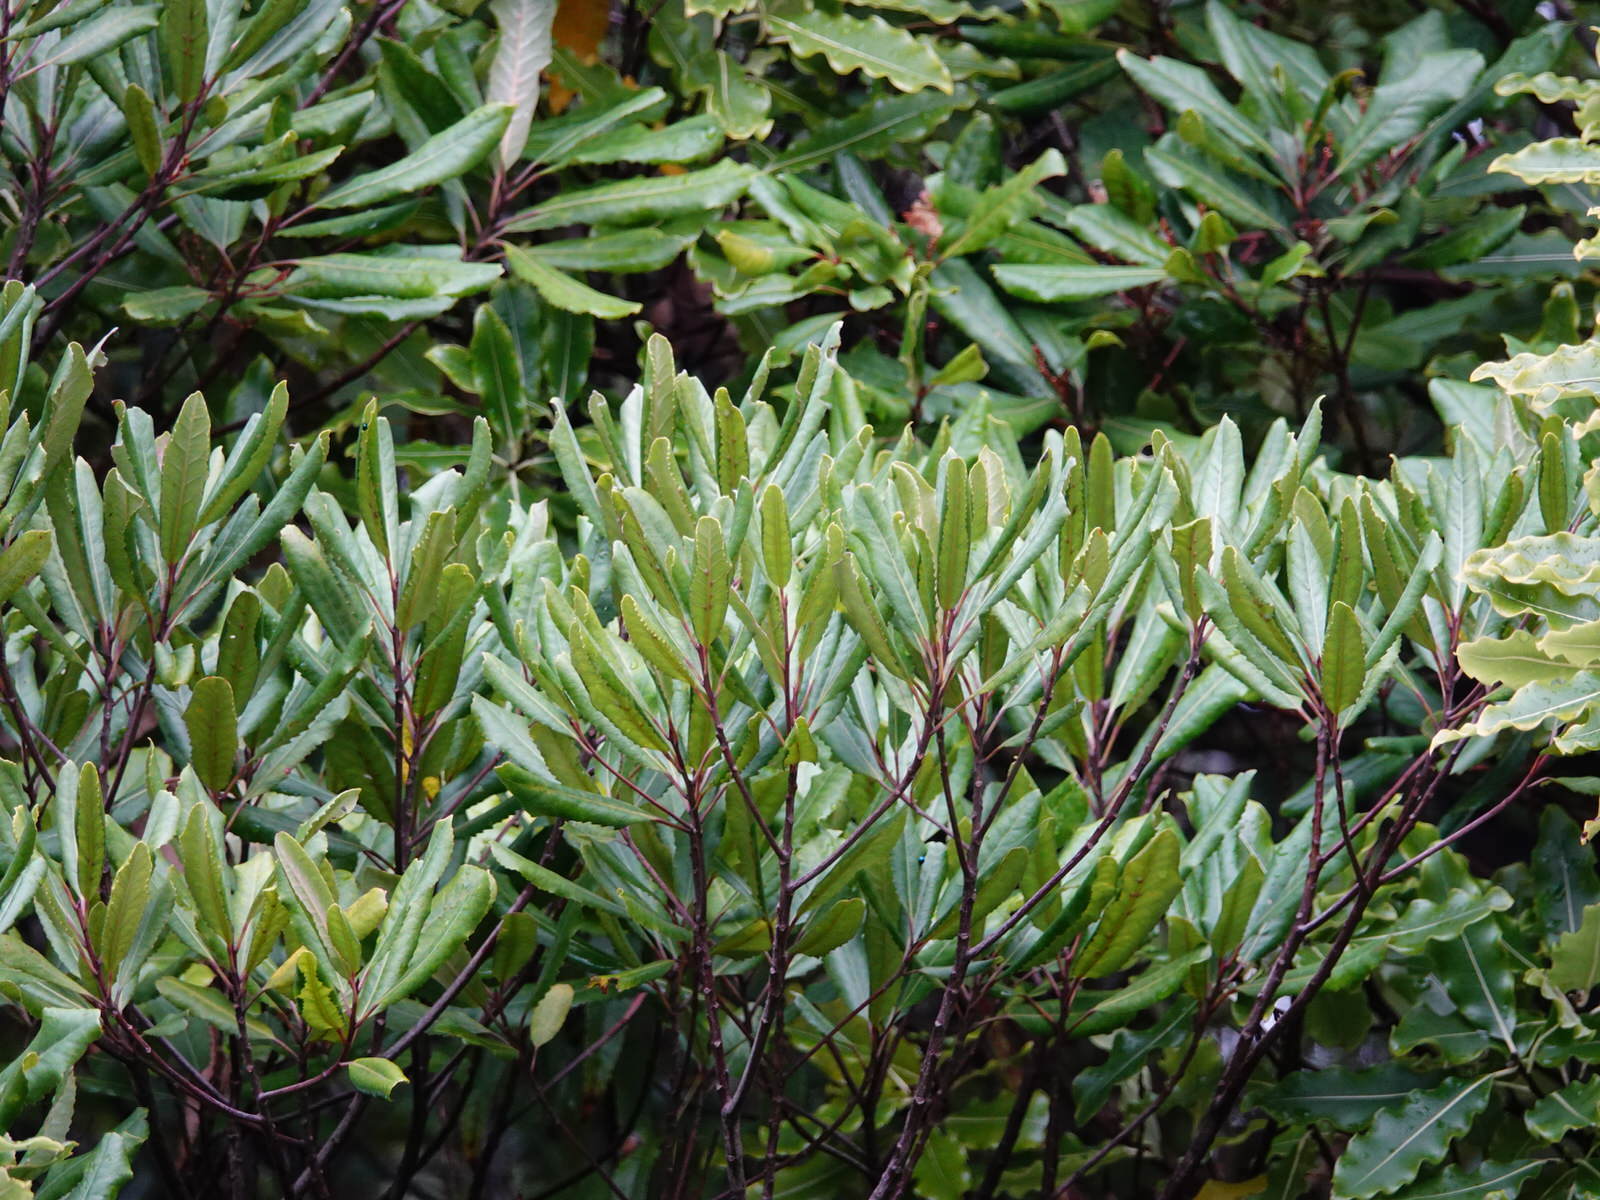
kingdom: Plantae
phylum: Tracheophyta
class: Magnoliopsida
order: Oxalidales
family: Elaeocarpaceae
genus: Elaeocarpus
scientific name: Elaeocarpus dentatus
